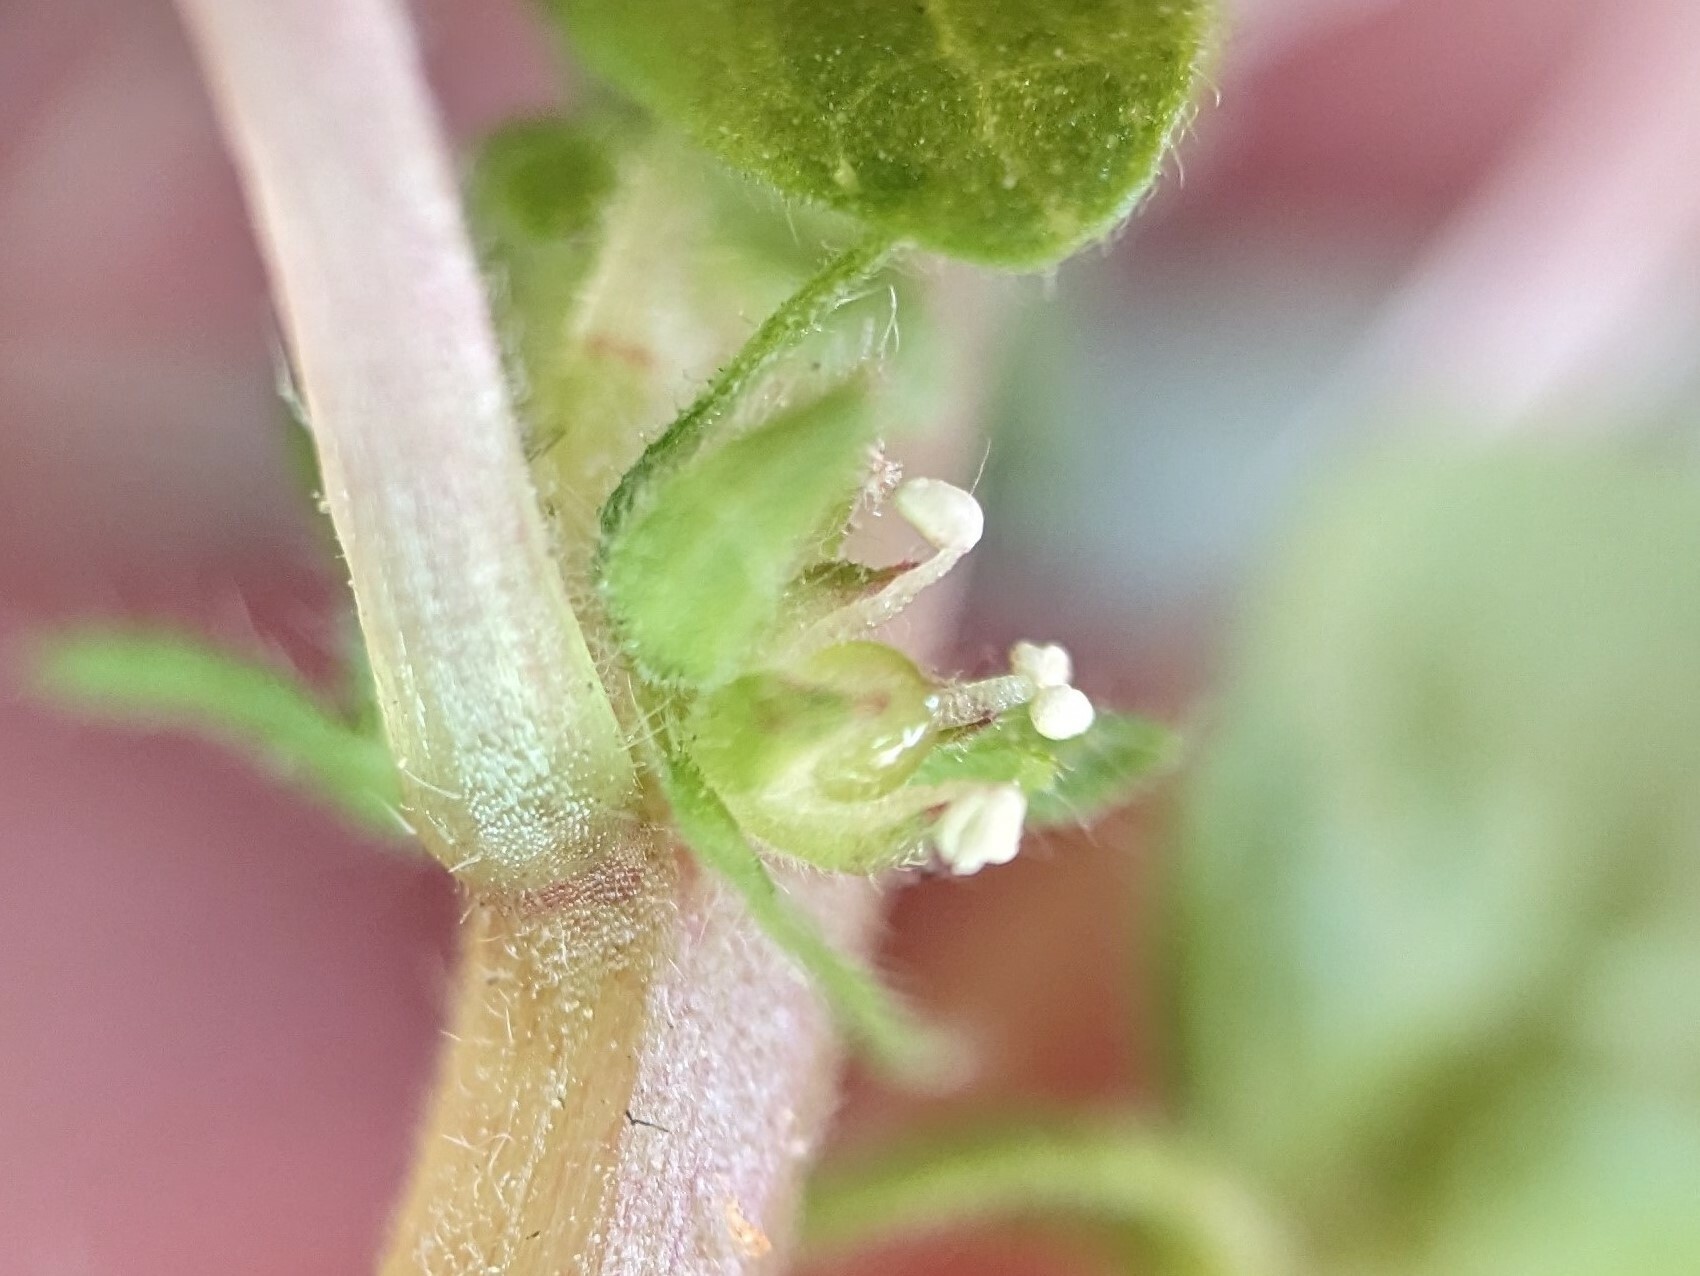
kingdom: Plantae
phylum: Tracheophyta
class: Magnoliopsida
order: Rosales
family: Urticaceae
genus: Parietaria
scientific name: Parietaria pensylvanica
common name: Pennsylvania pellitory
